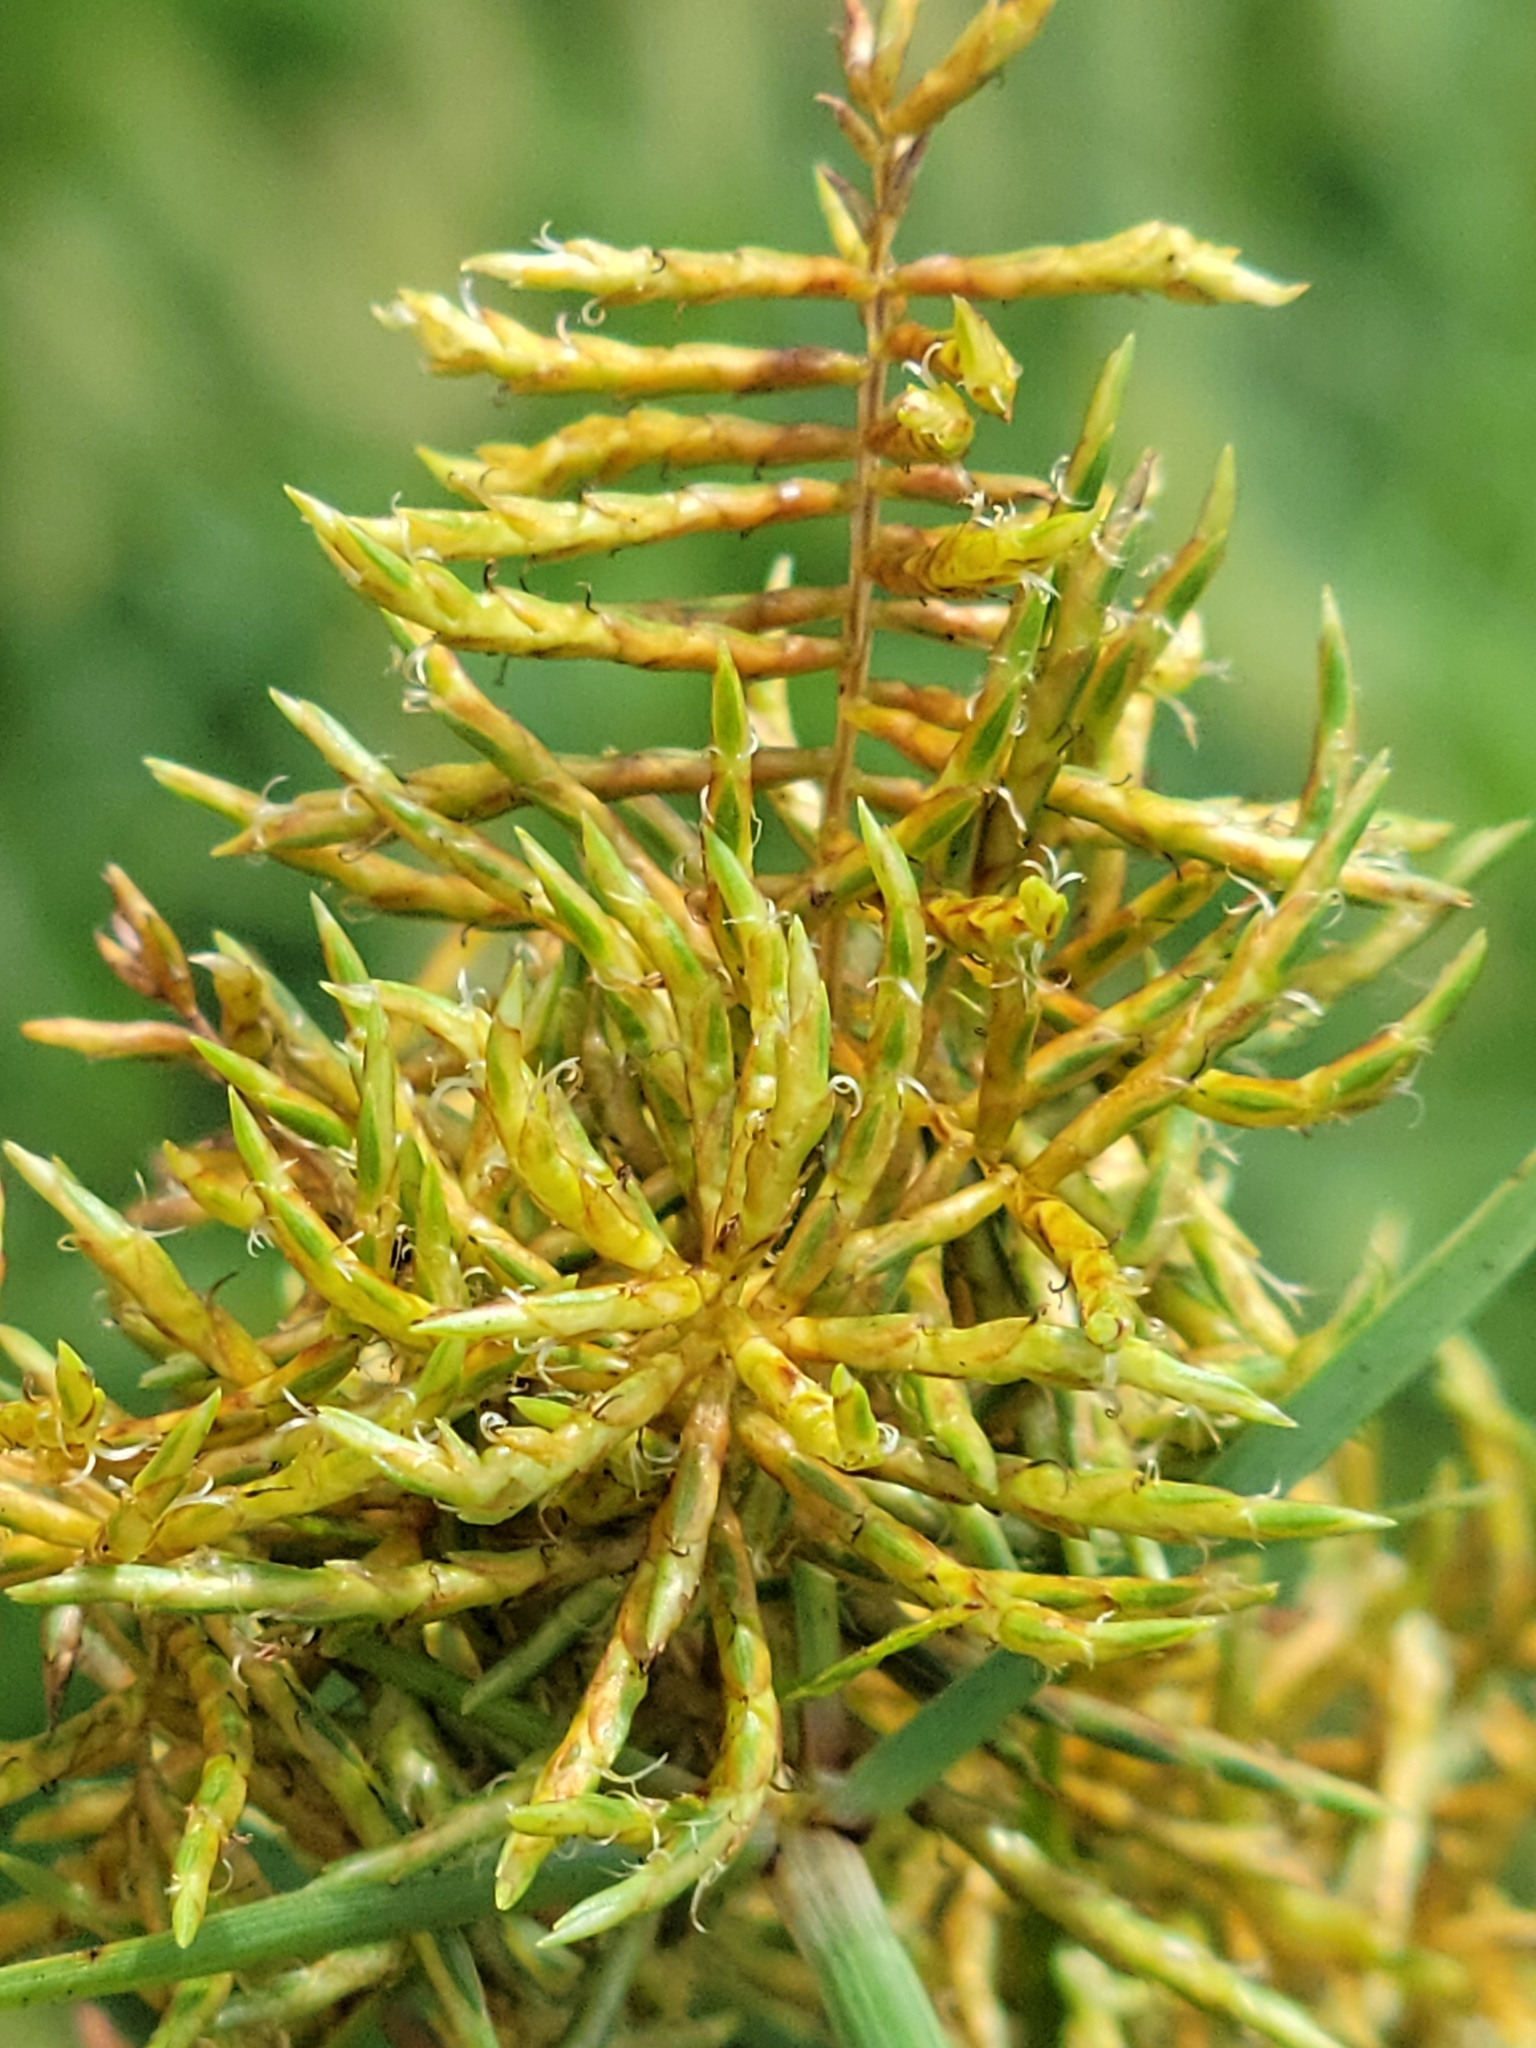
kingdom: Plantae
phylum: Tracheophyta
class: Liliopsida
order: Poales
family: Cyperaceae
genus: Cyperus
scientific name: Cyperus odoratus
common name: Fragrant flatsedge
